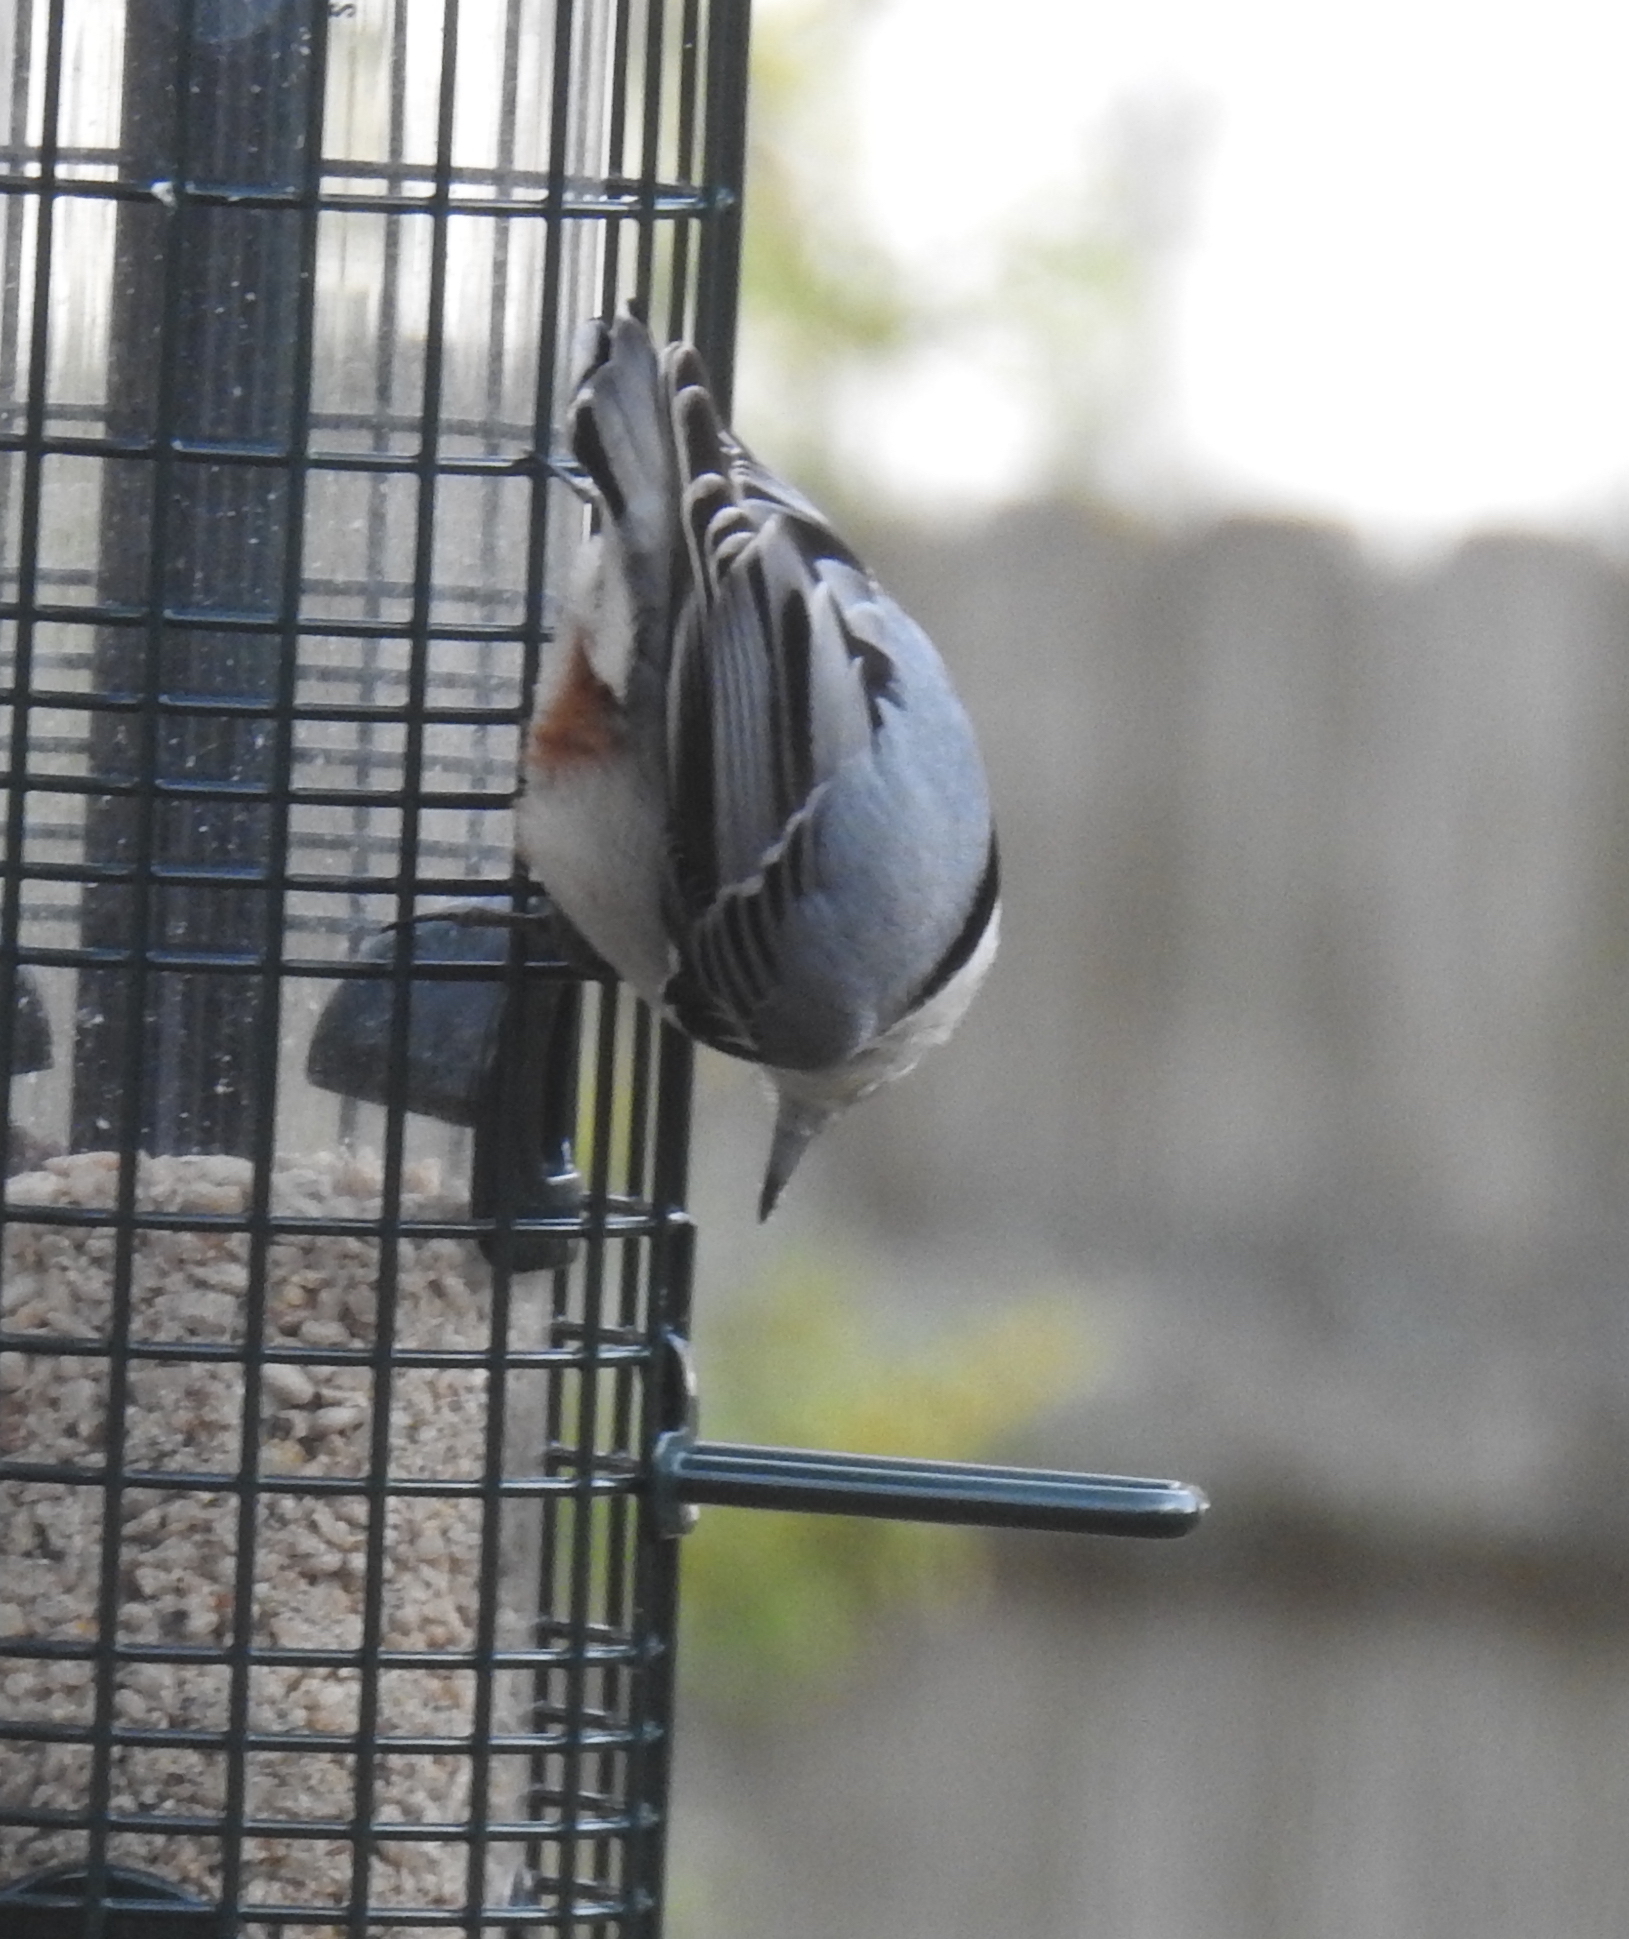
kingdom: Animalia
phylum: Chordata
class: Aves
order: Passeriformes
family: Sittidae
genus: Sitta
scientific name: Sitta carolinensis
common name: White-breasted nuthatch
